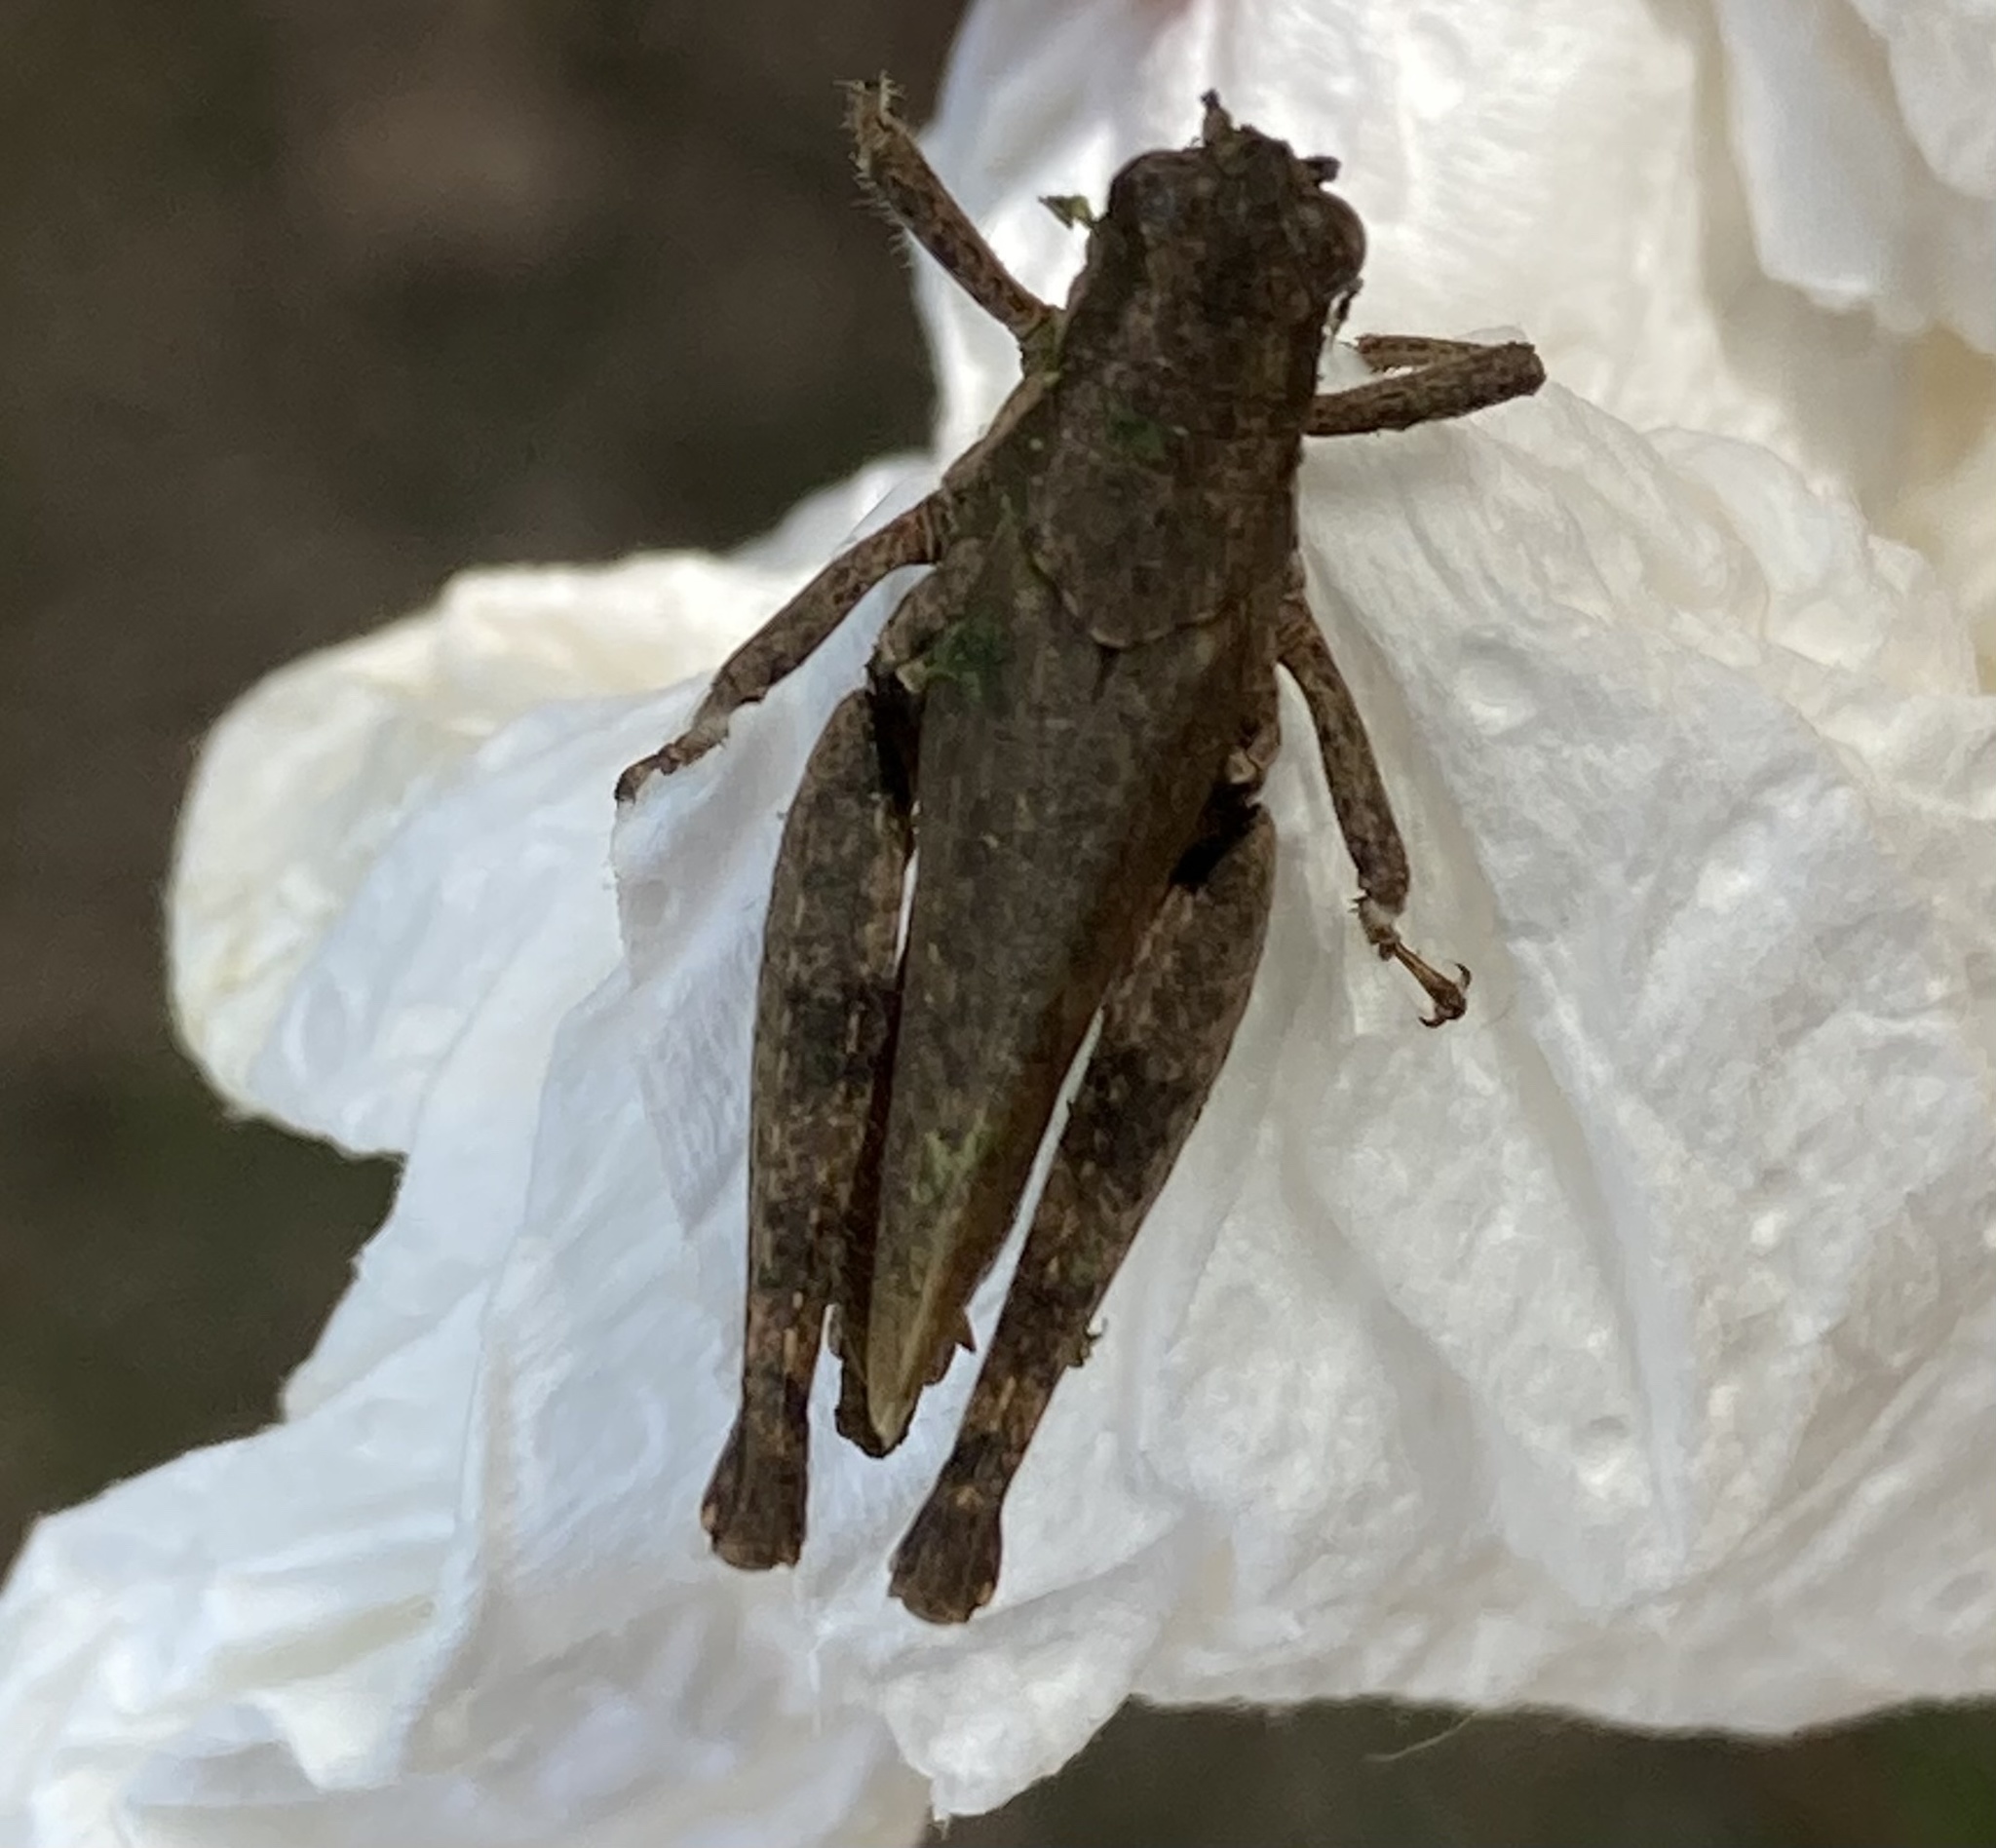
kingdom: Animalia
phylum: Arthropoda
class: Insecta
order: Orthoptera
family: Acrididae
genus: Ronderosia
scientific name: Ronderosia bergii
